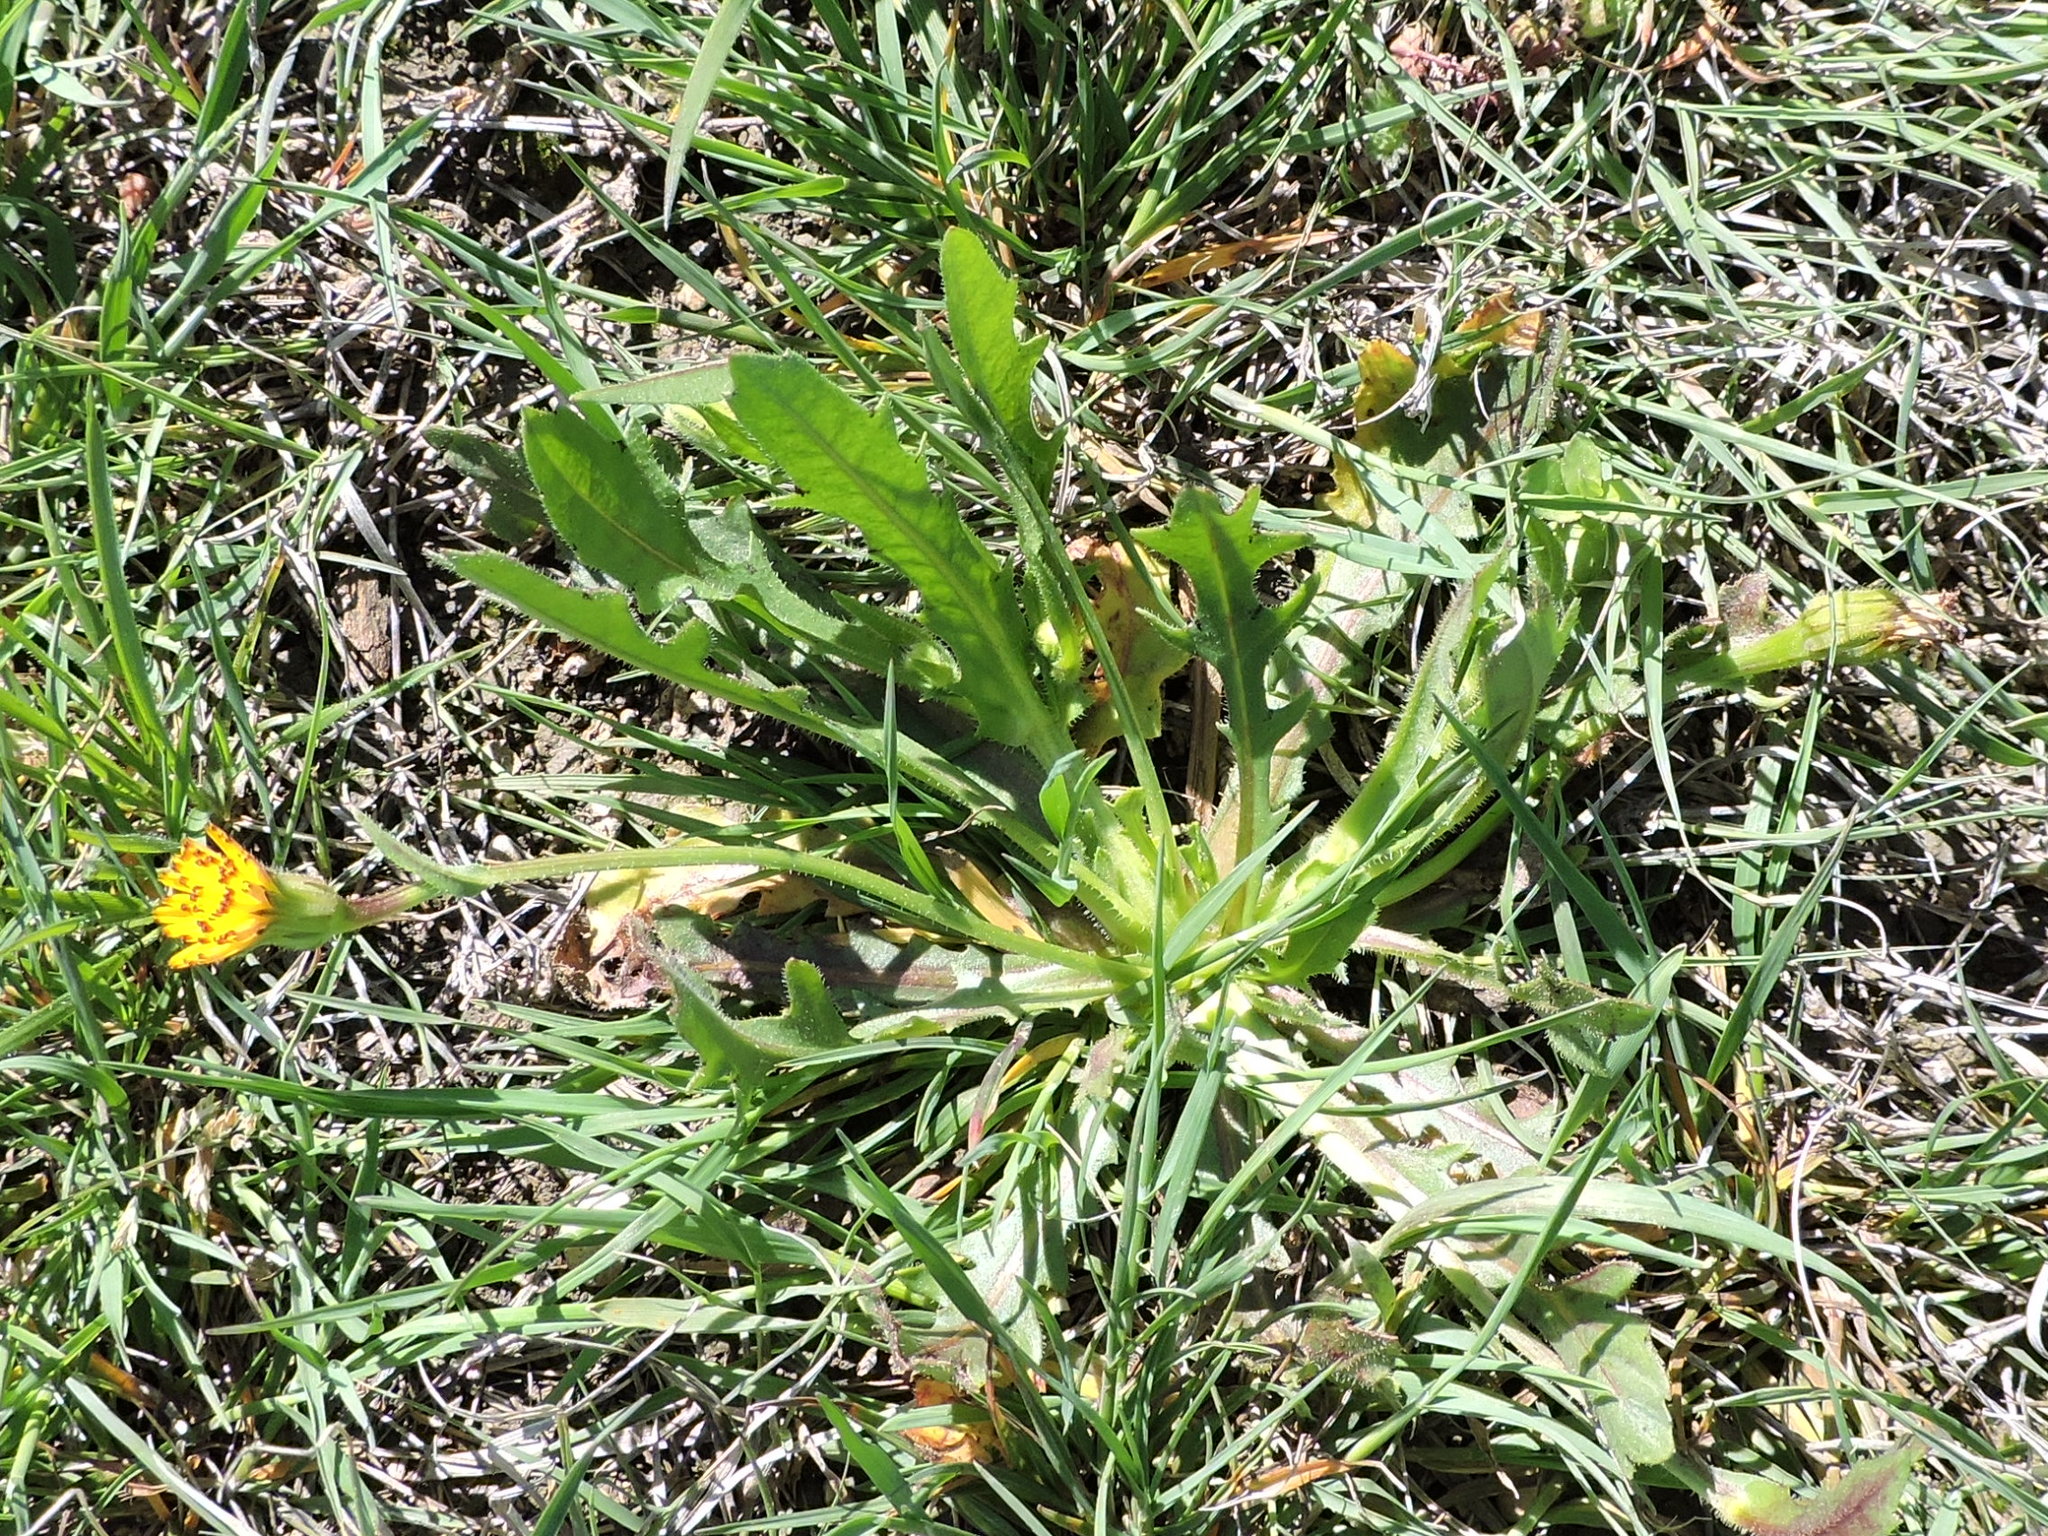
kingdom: Plantae
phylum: Tracheophyta
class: Magnoliopsida
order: Asterales
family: Asteraceae
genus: Hedypnois
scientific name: Hedypnois rhagadioloides
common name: Cretan weed
